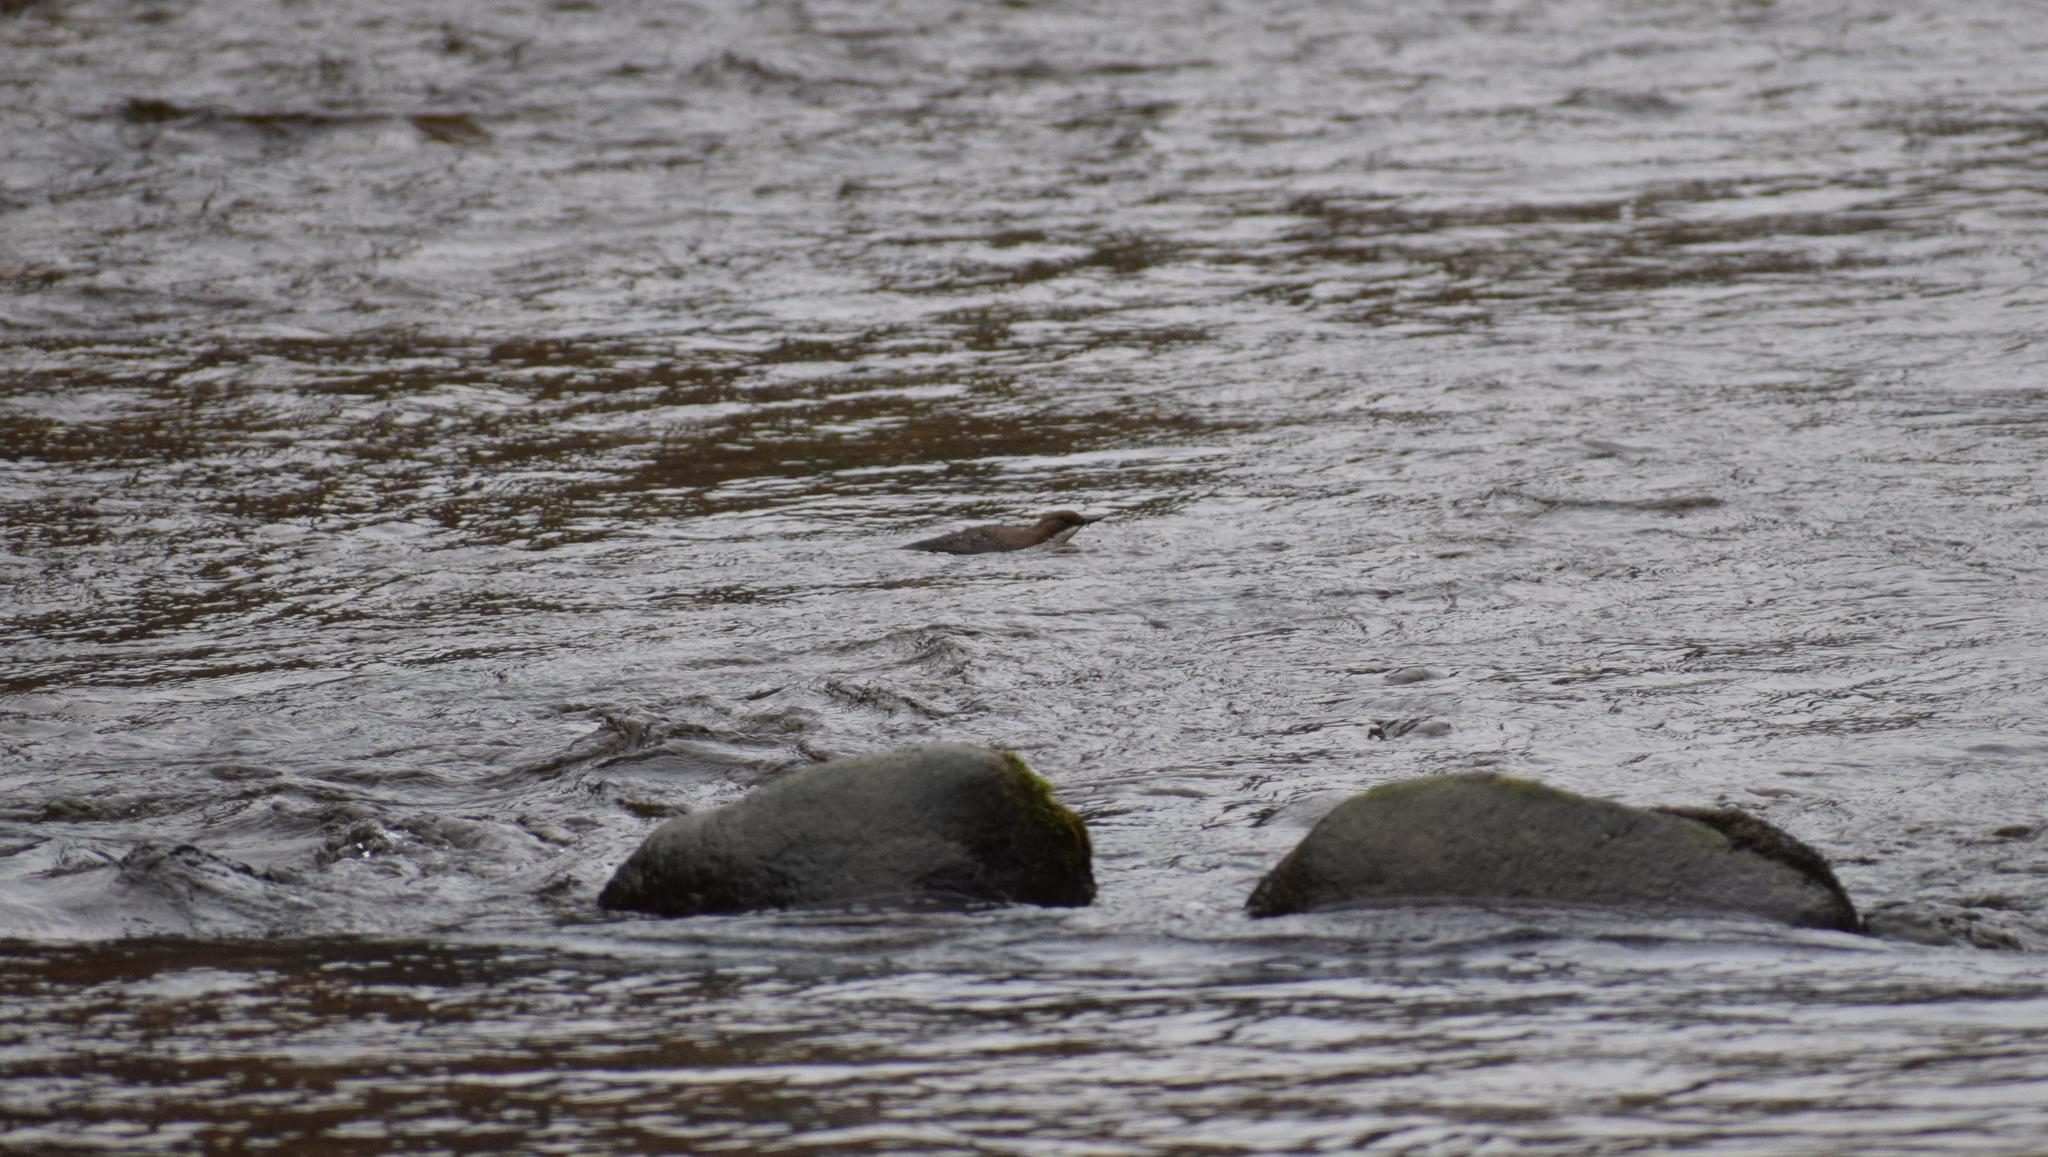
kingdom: Animalia
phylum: Chordata
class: Aves
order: Passeriformes
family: Cinclidae
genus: Cinclus
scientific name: Cinclus cinclus
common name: White-throated dipper
